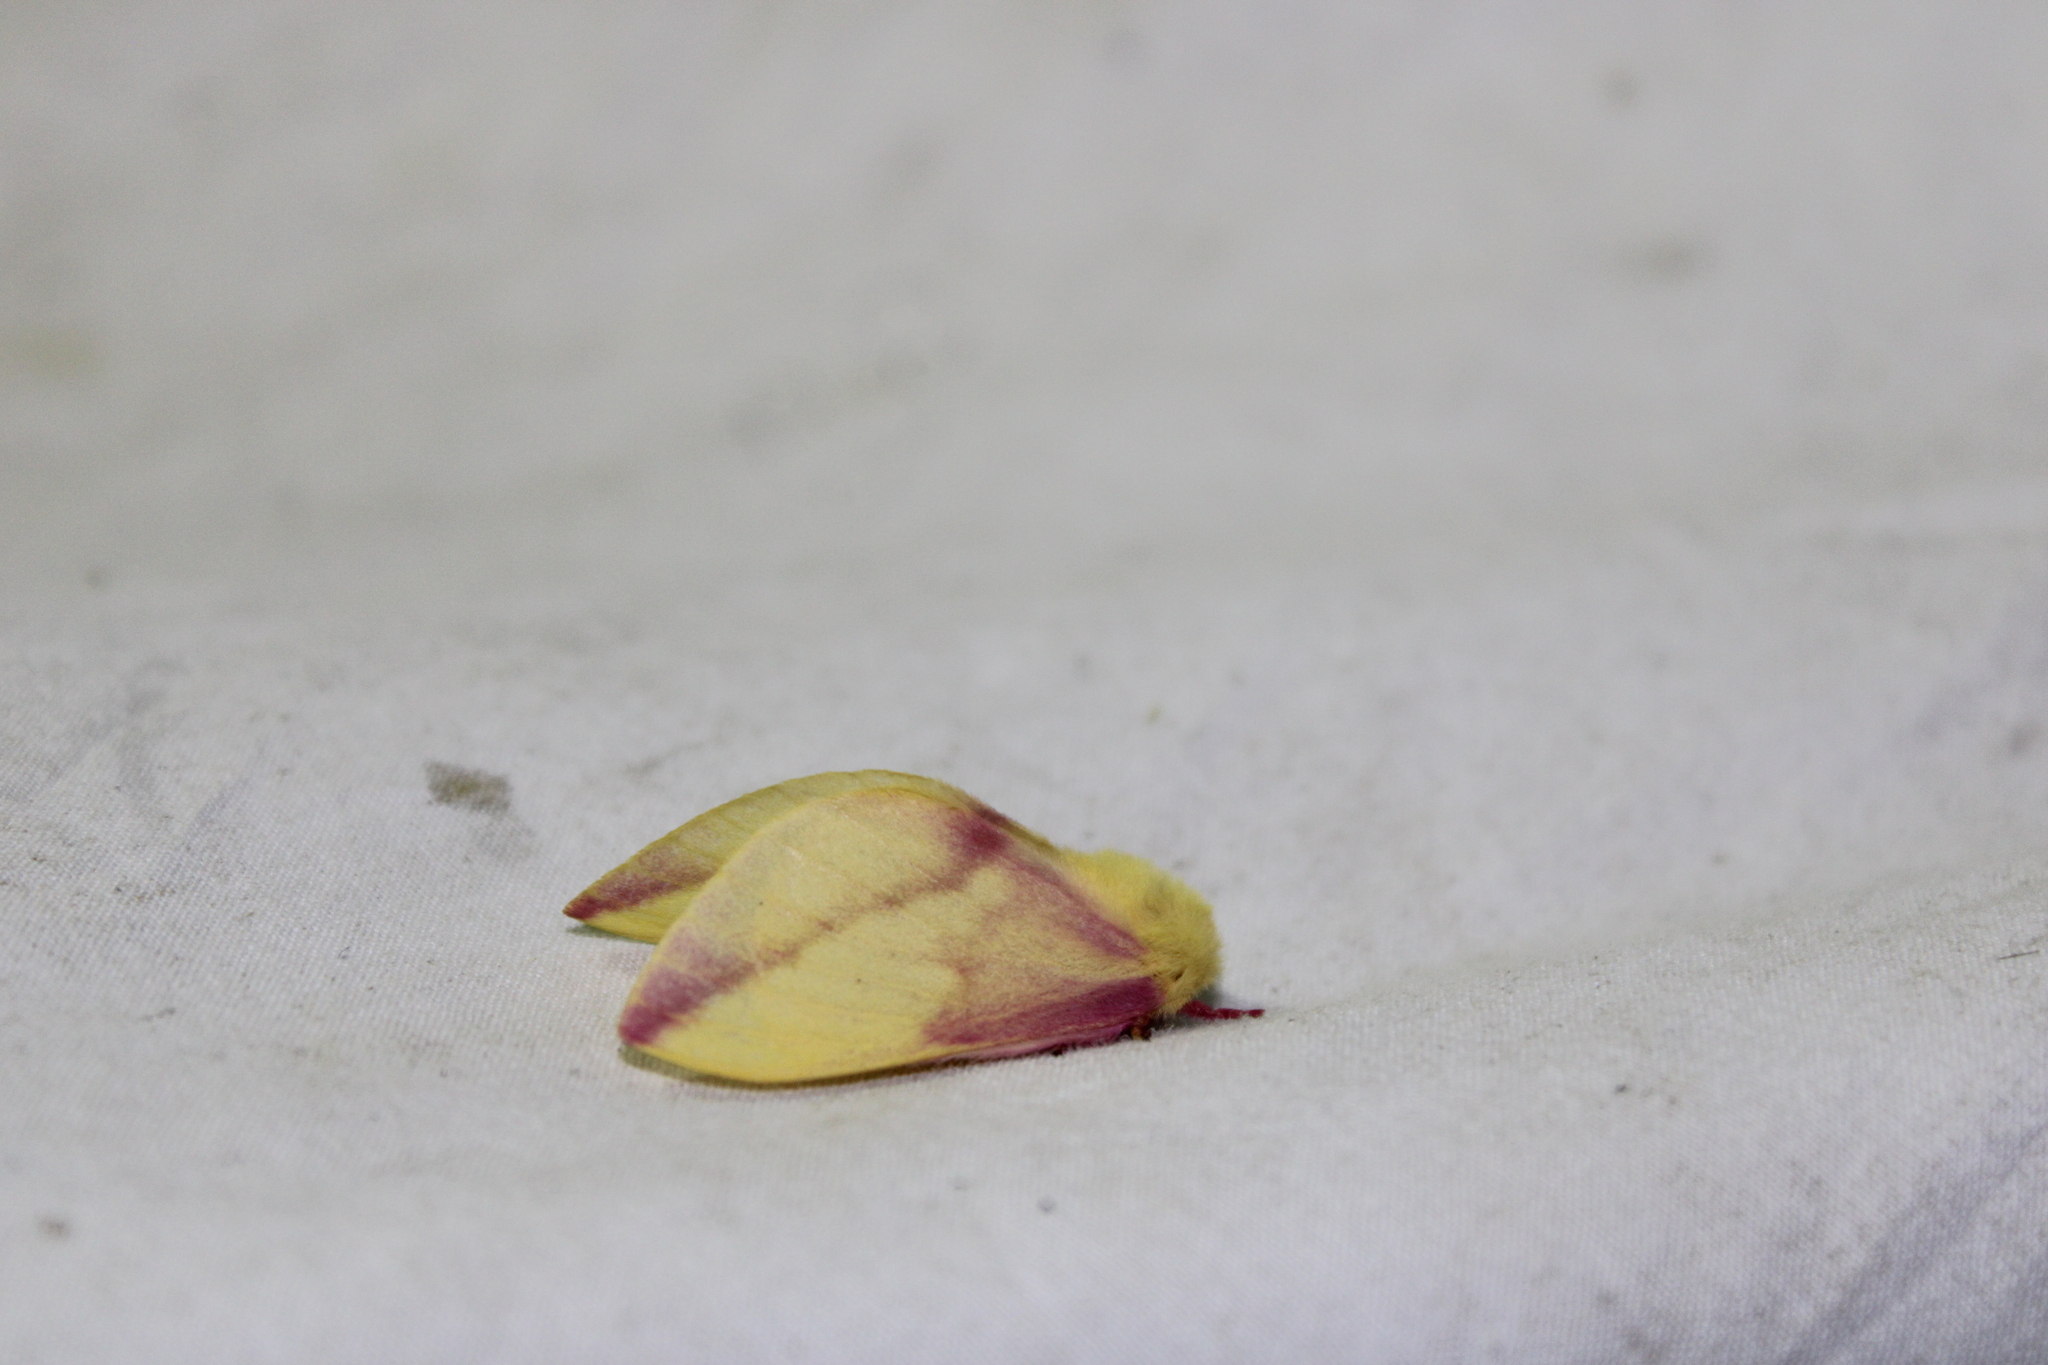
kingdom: Animalia
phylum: Arthropoda
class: Insecta
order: Lepidoptera
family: Saturniidae
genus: Dryocampa
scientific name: Dryocampa rubicunda
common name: Rosy maple moth
